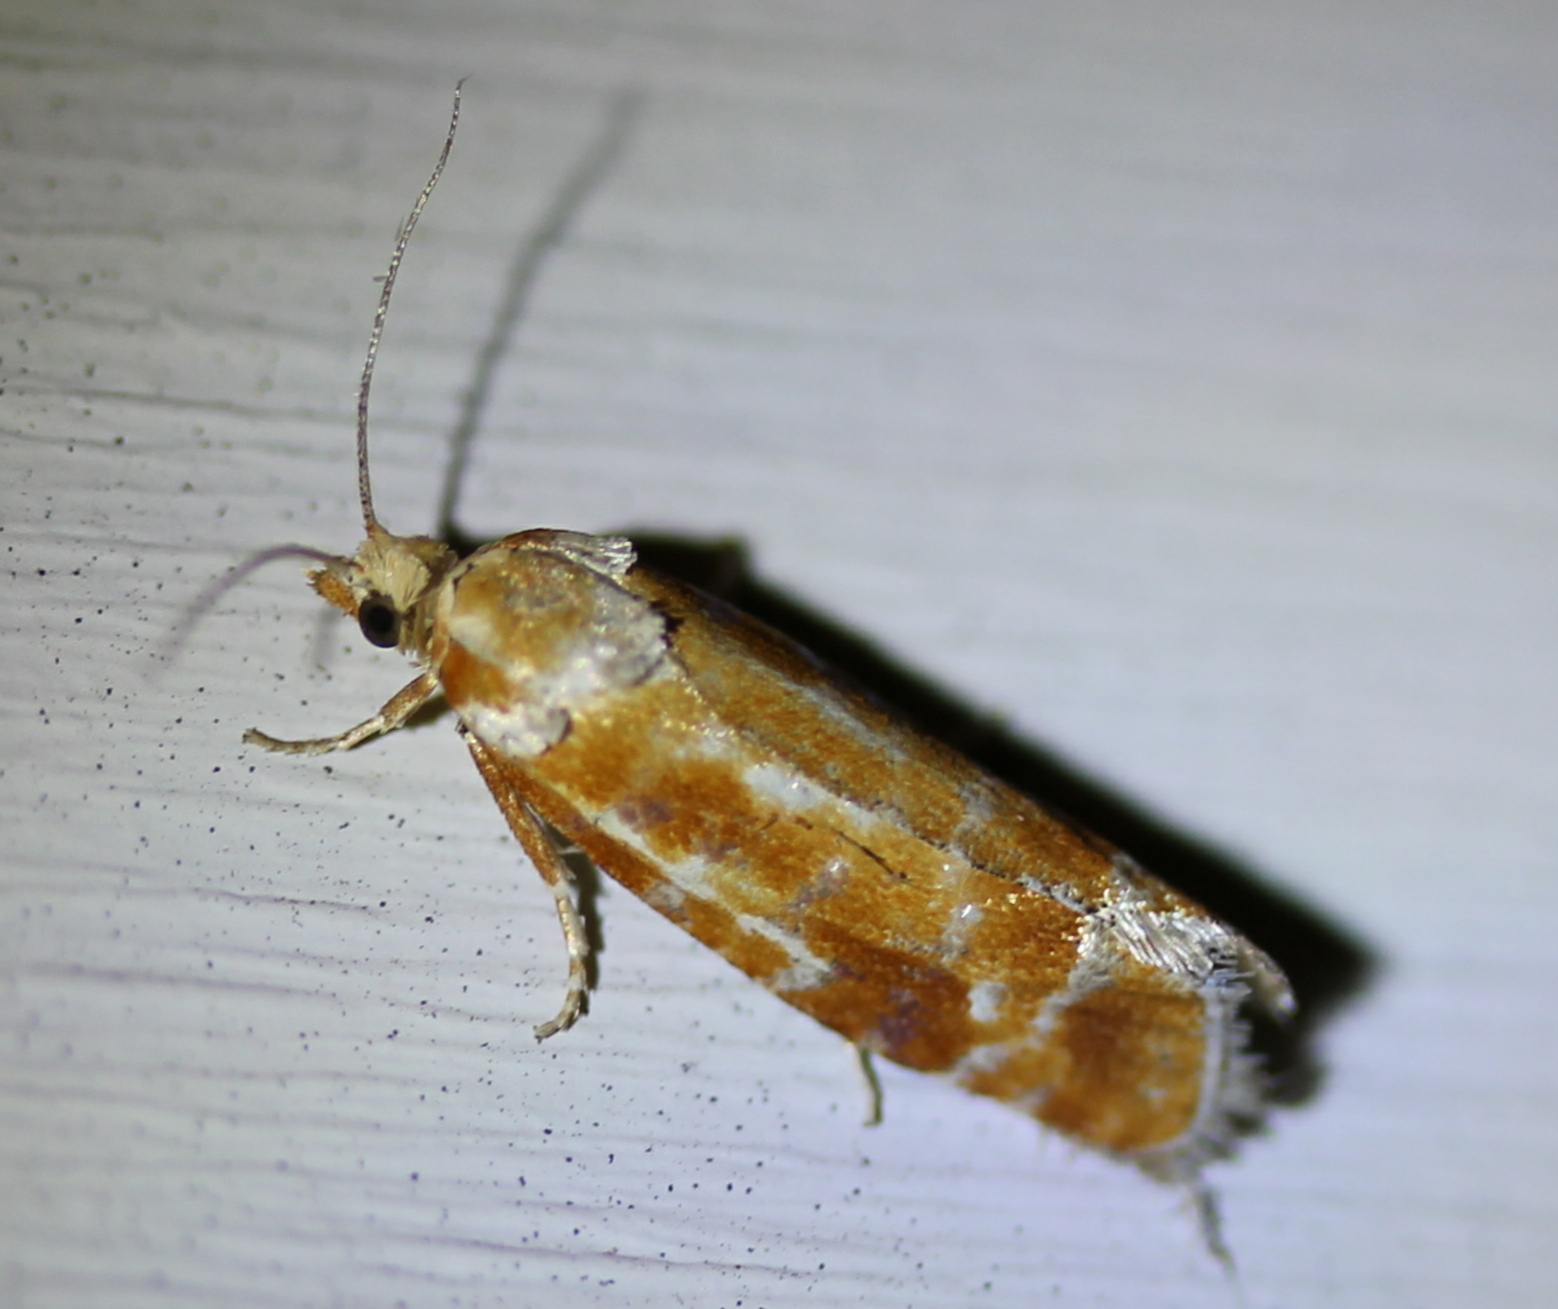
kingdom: Animalia
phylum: Arthropoda
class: Insecta
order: Lepidoptera
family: Tortricidae
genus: Rhyacionia
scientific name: Rhyacionia buoliana
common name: European pine shoot moth
